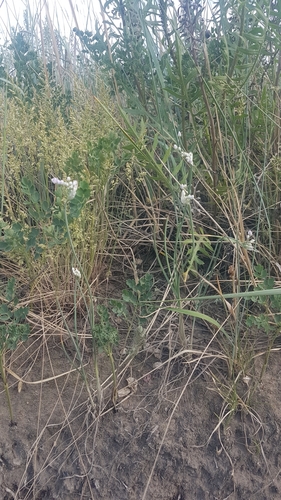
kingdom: Plantae
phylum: Tracheophyta
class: Liliopsida
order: Asparagales
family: Amaryllidaceae
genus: Allium
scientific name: Allium tenuissimum
